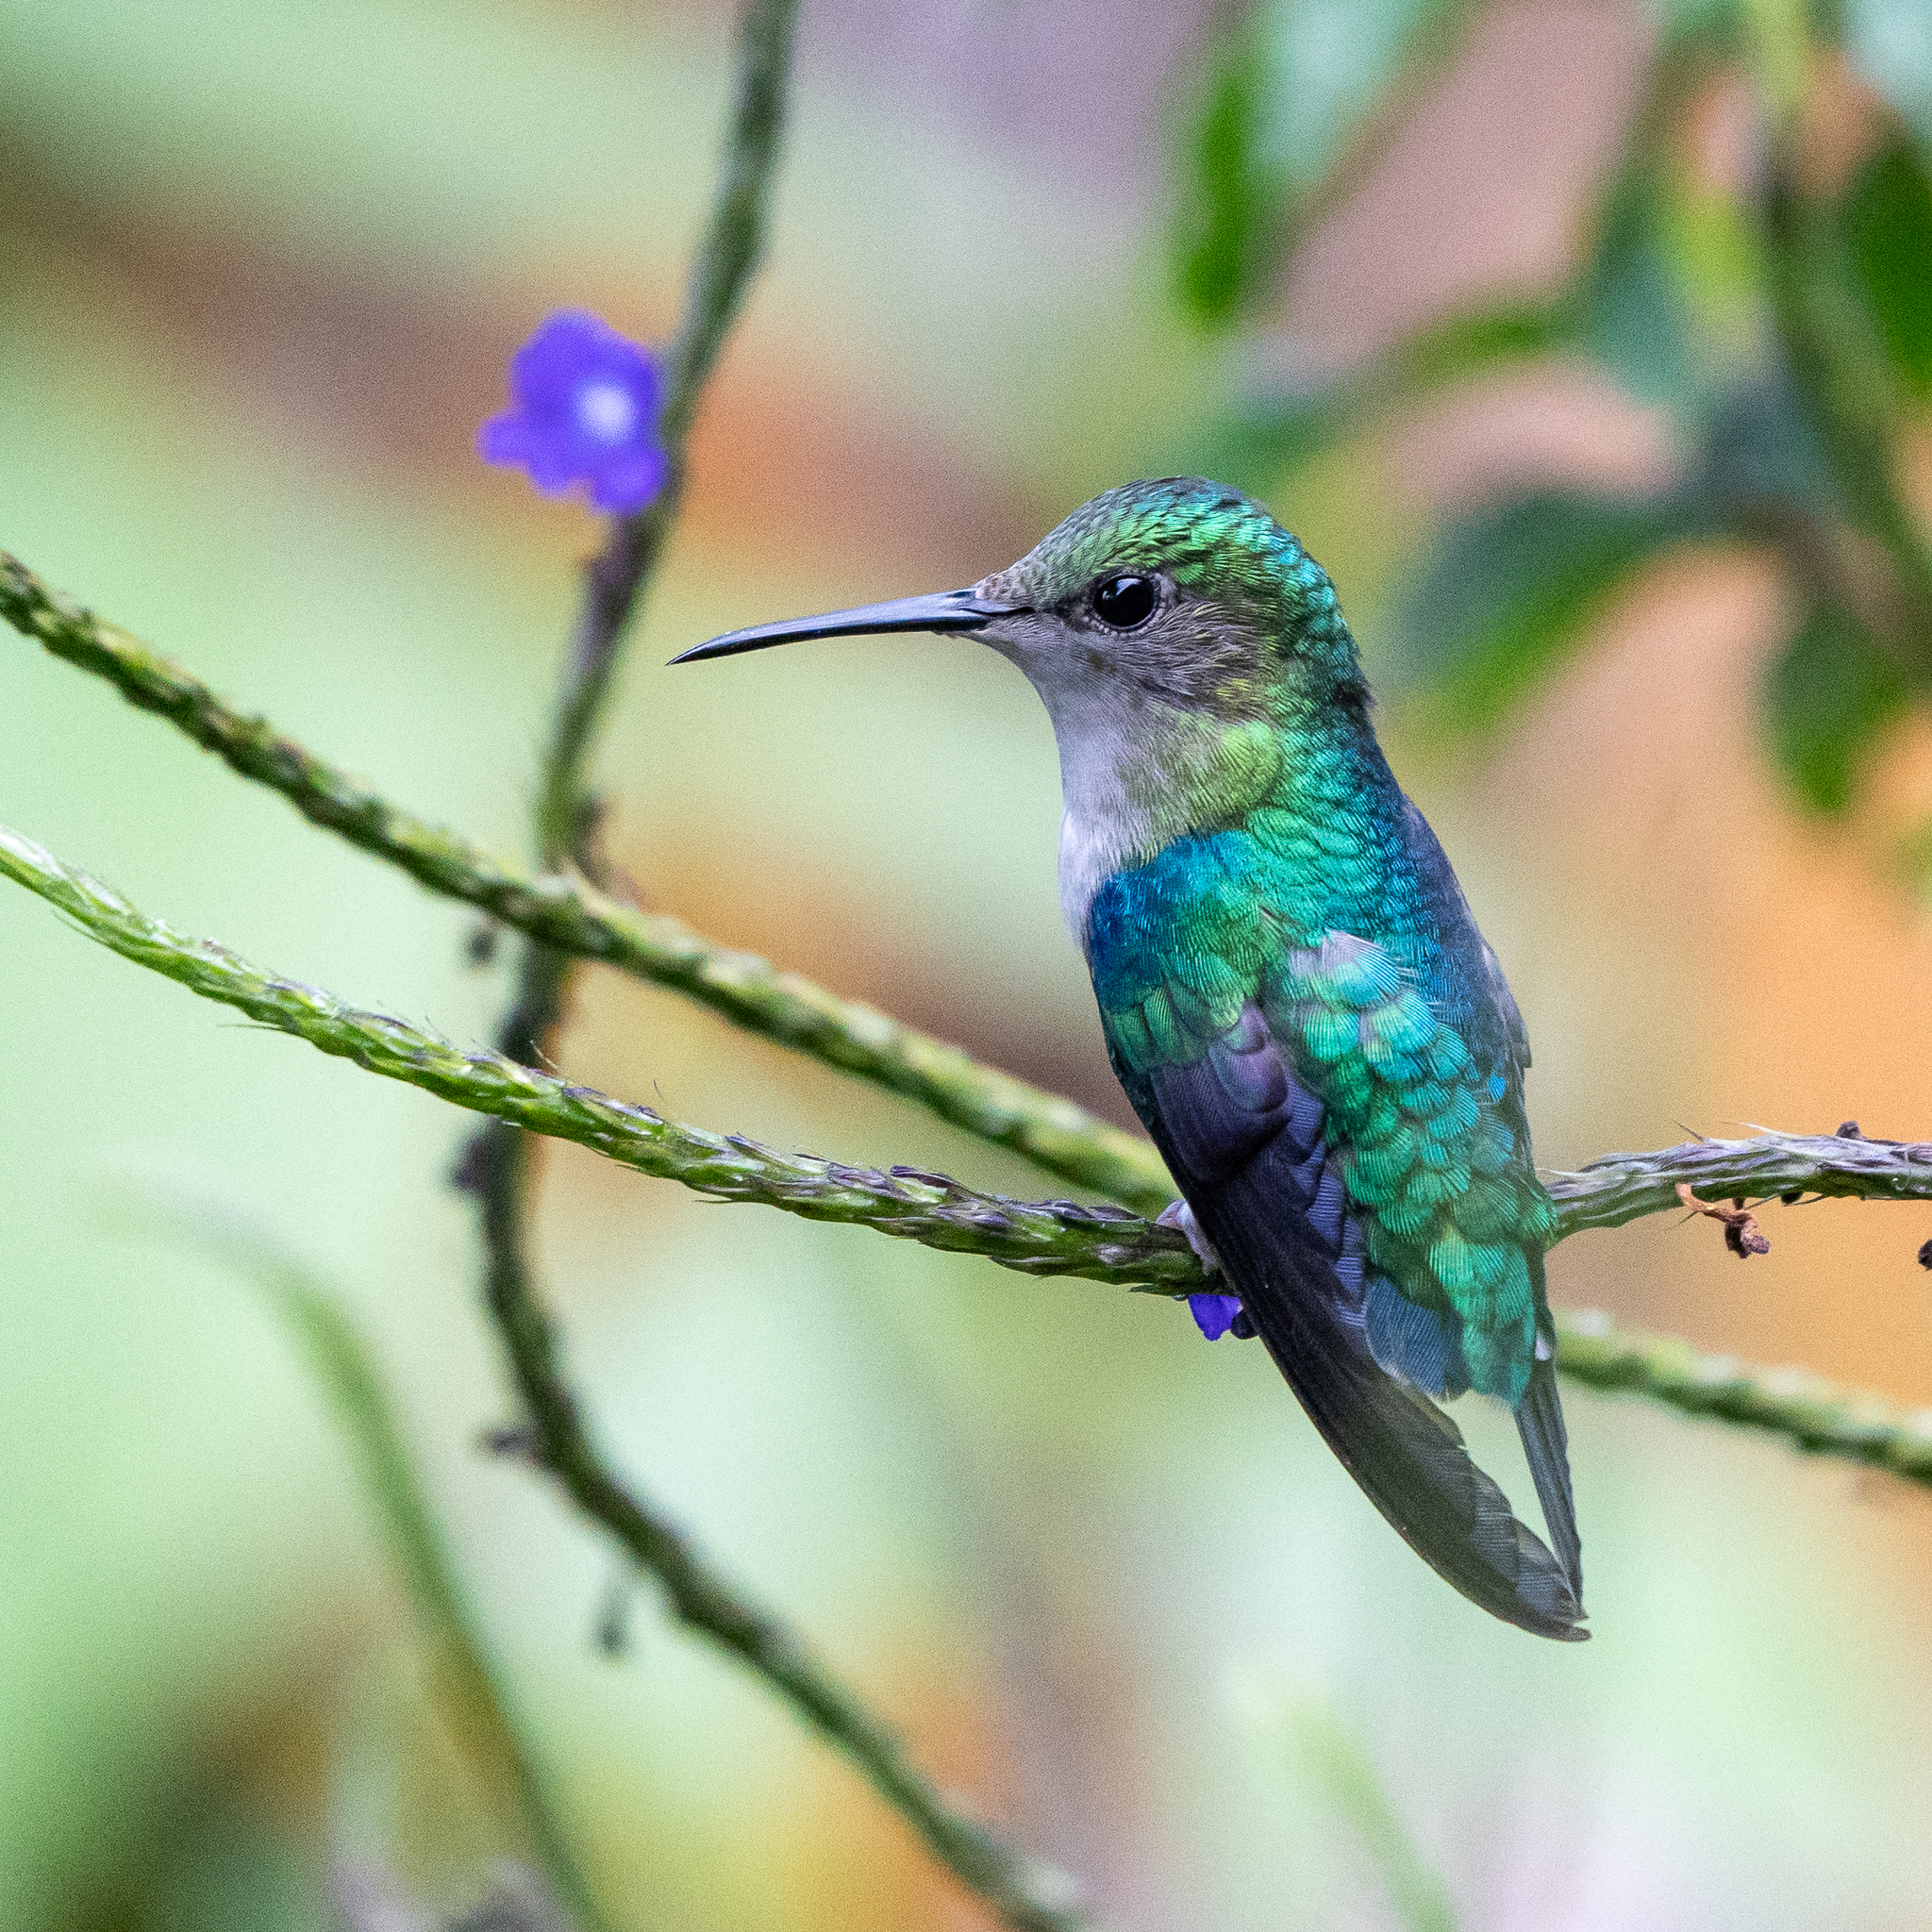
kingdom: Animalia
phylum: Chordata
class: Aves
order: Apodiformes
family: Trochilidae
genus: Thalurania
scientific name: Thalurania colombica
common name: Crowned woodnymph
